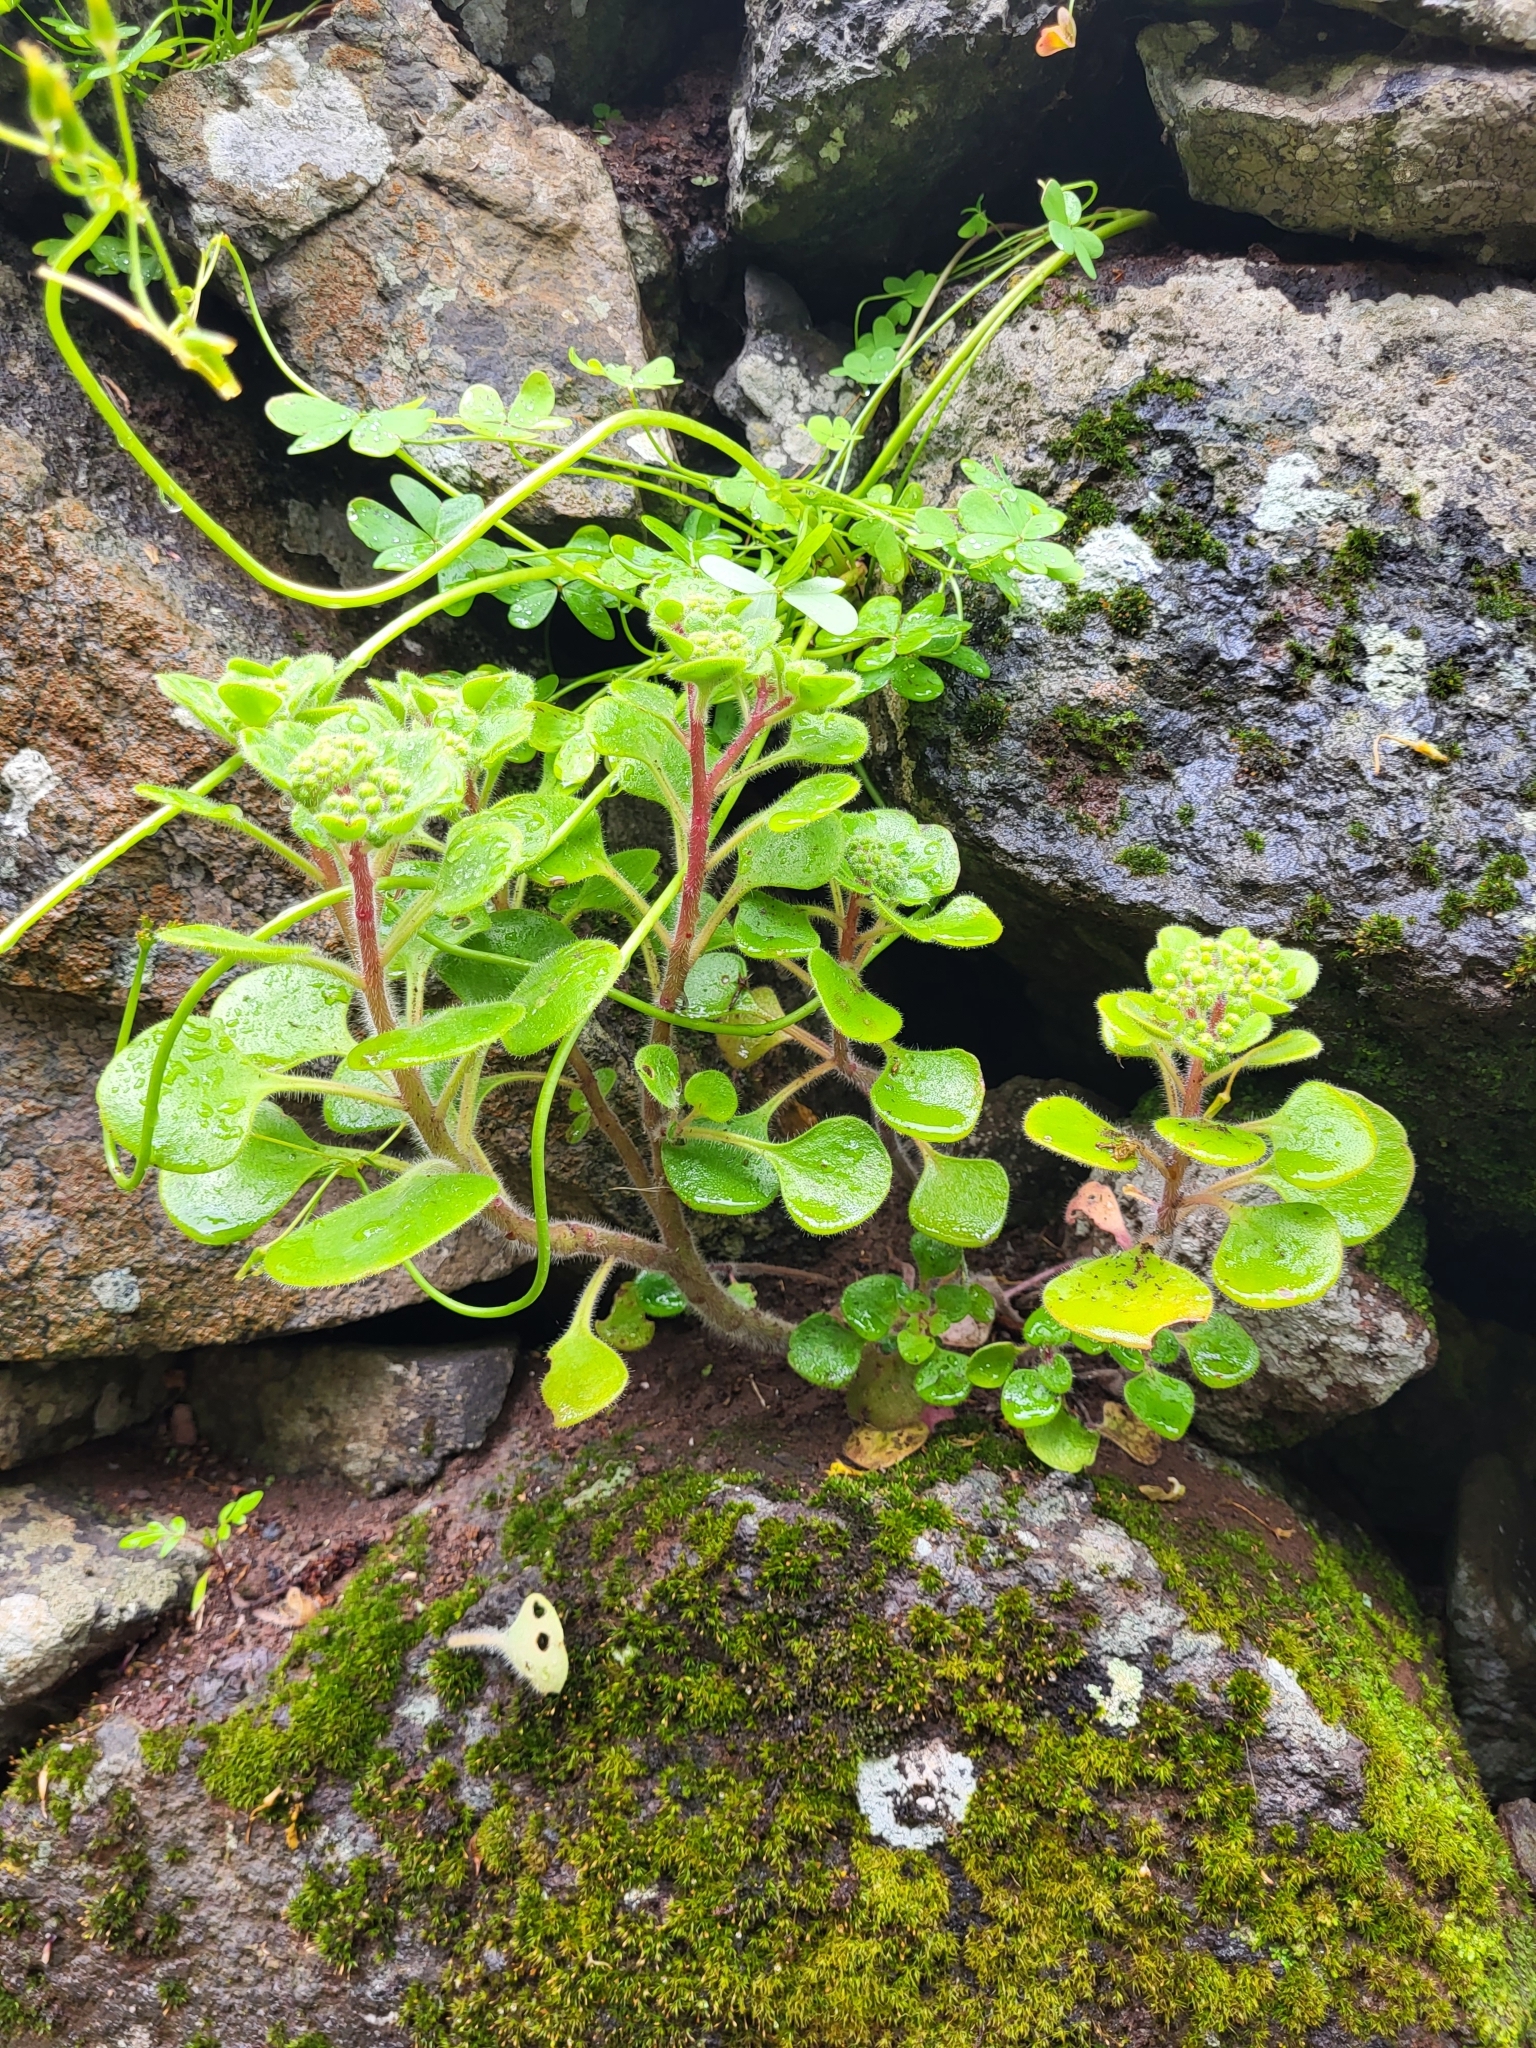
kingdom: Plantae
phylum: Tracheophyta
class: Magnoliopsida
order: Saxifragales
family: Crassulaceae
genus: Aichryson
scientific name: Aichryson laxum
